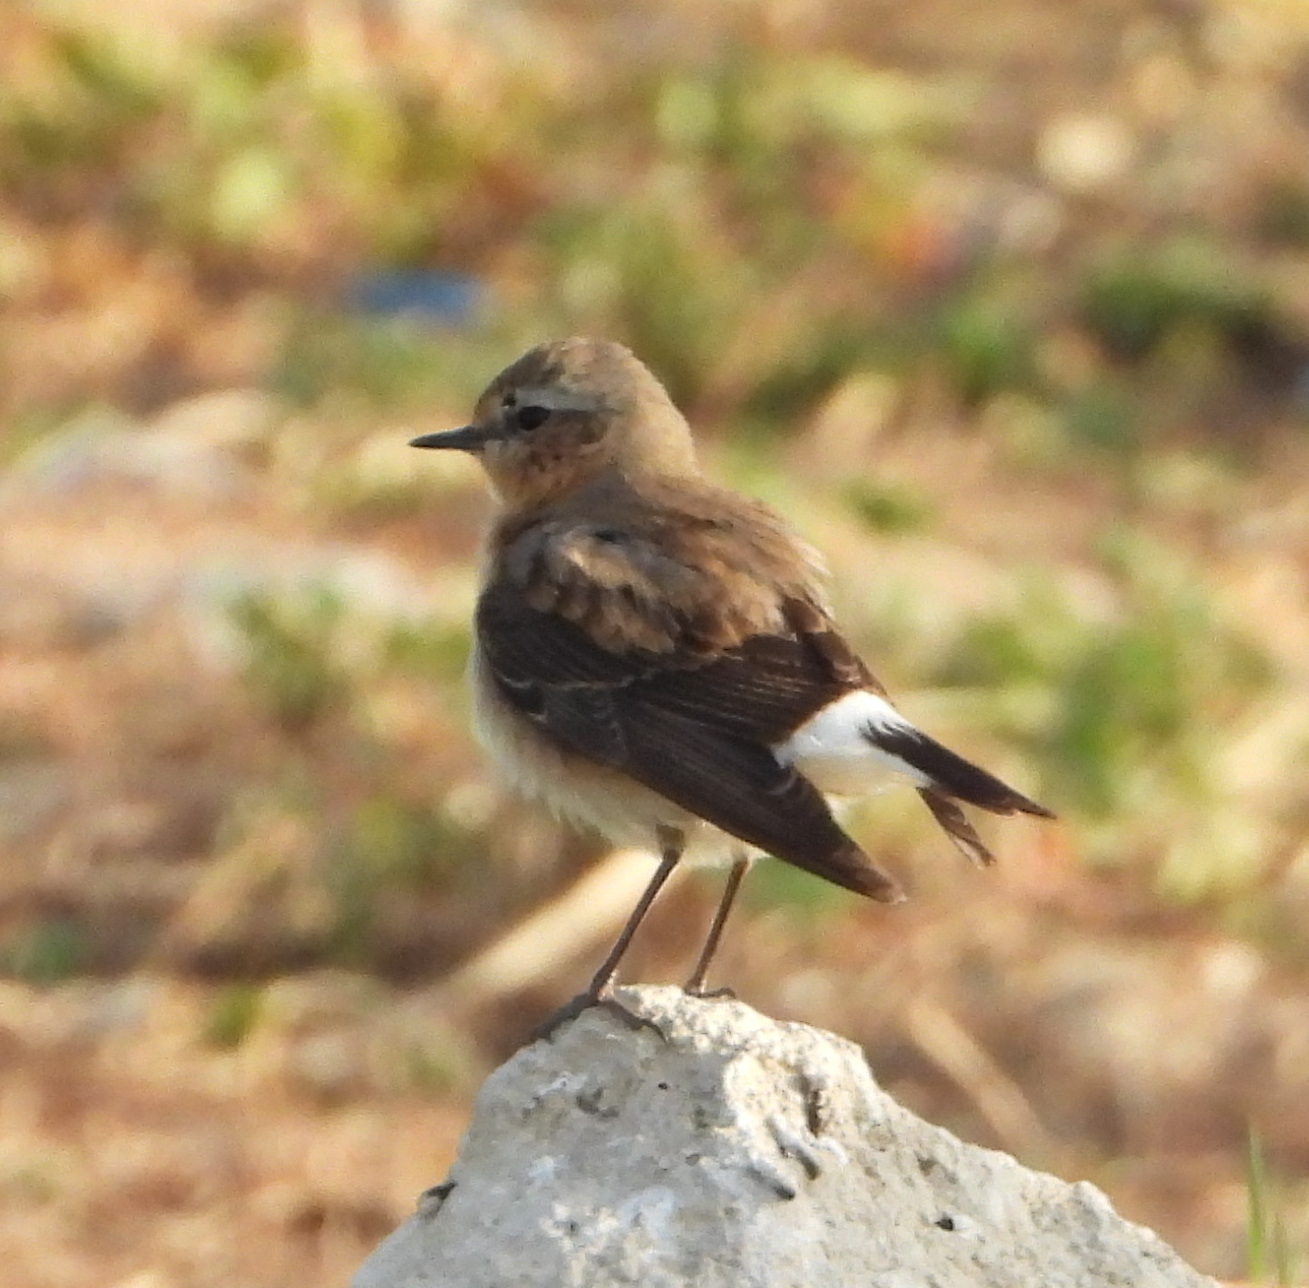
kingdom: Animalia
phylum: Chordata
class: Aves
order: Passeriformes
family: Muscicapidae
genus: Oenanthe
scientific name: Oenanthe oenanthe
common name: Northern wheatear
